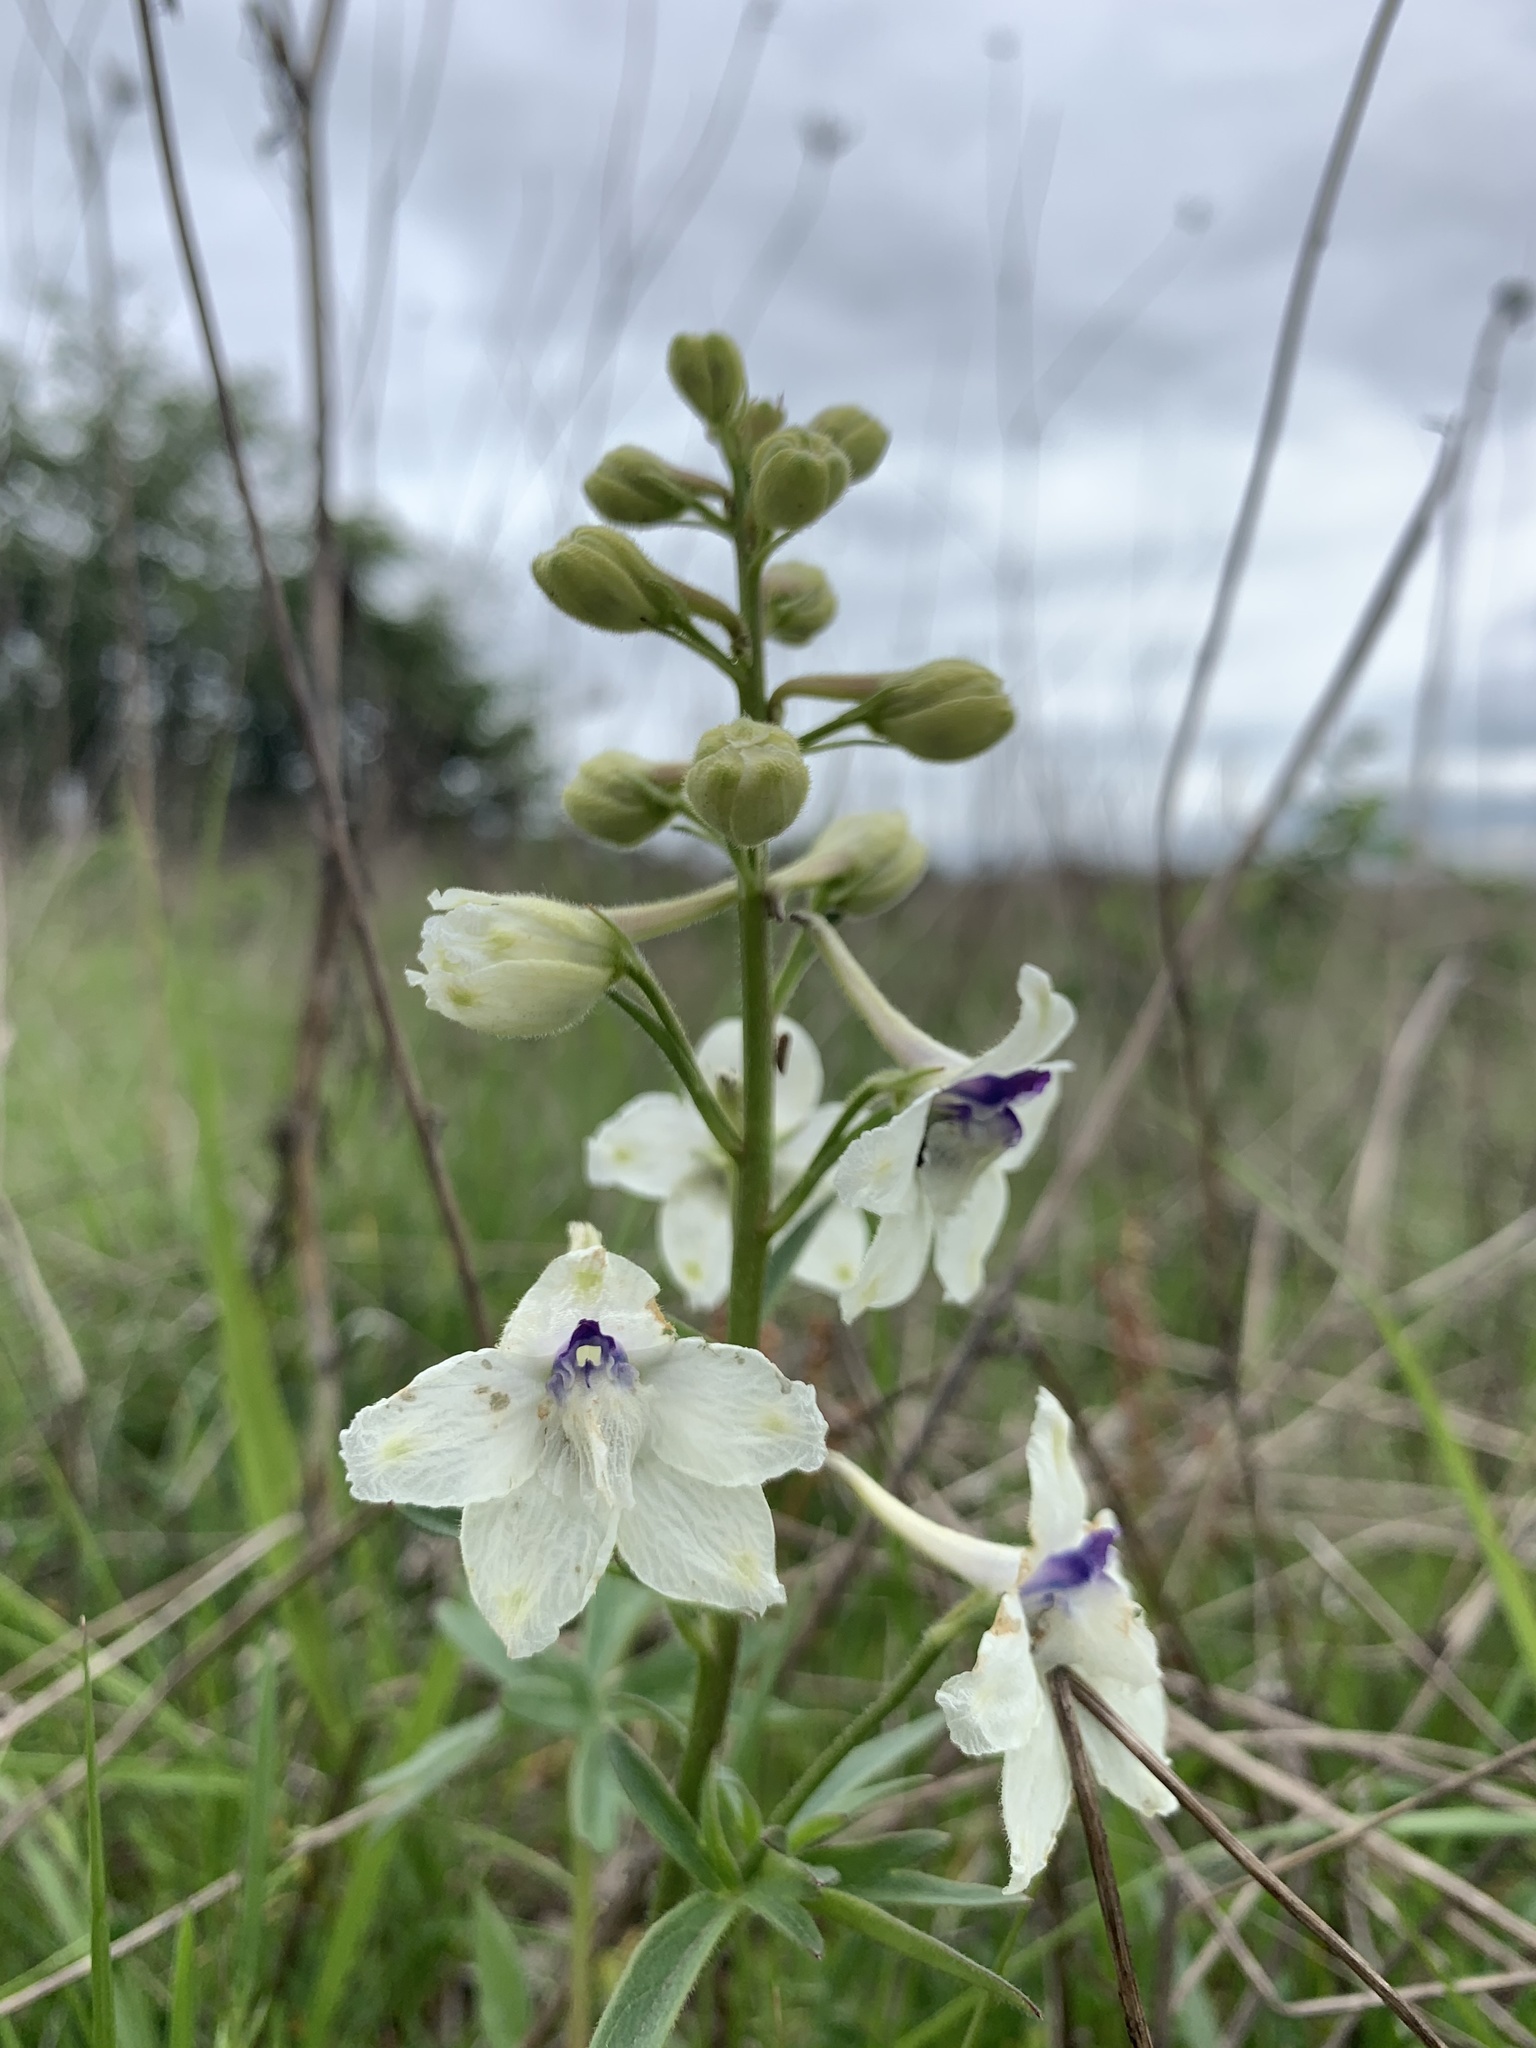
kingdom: Plantae
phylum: Tracheophyta
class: Magnoliopsida
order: Ranunculales
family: Ranunculaceae
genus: Delphinium
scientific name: Delphinium pavonaceum
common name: Peacock larkspur
